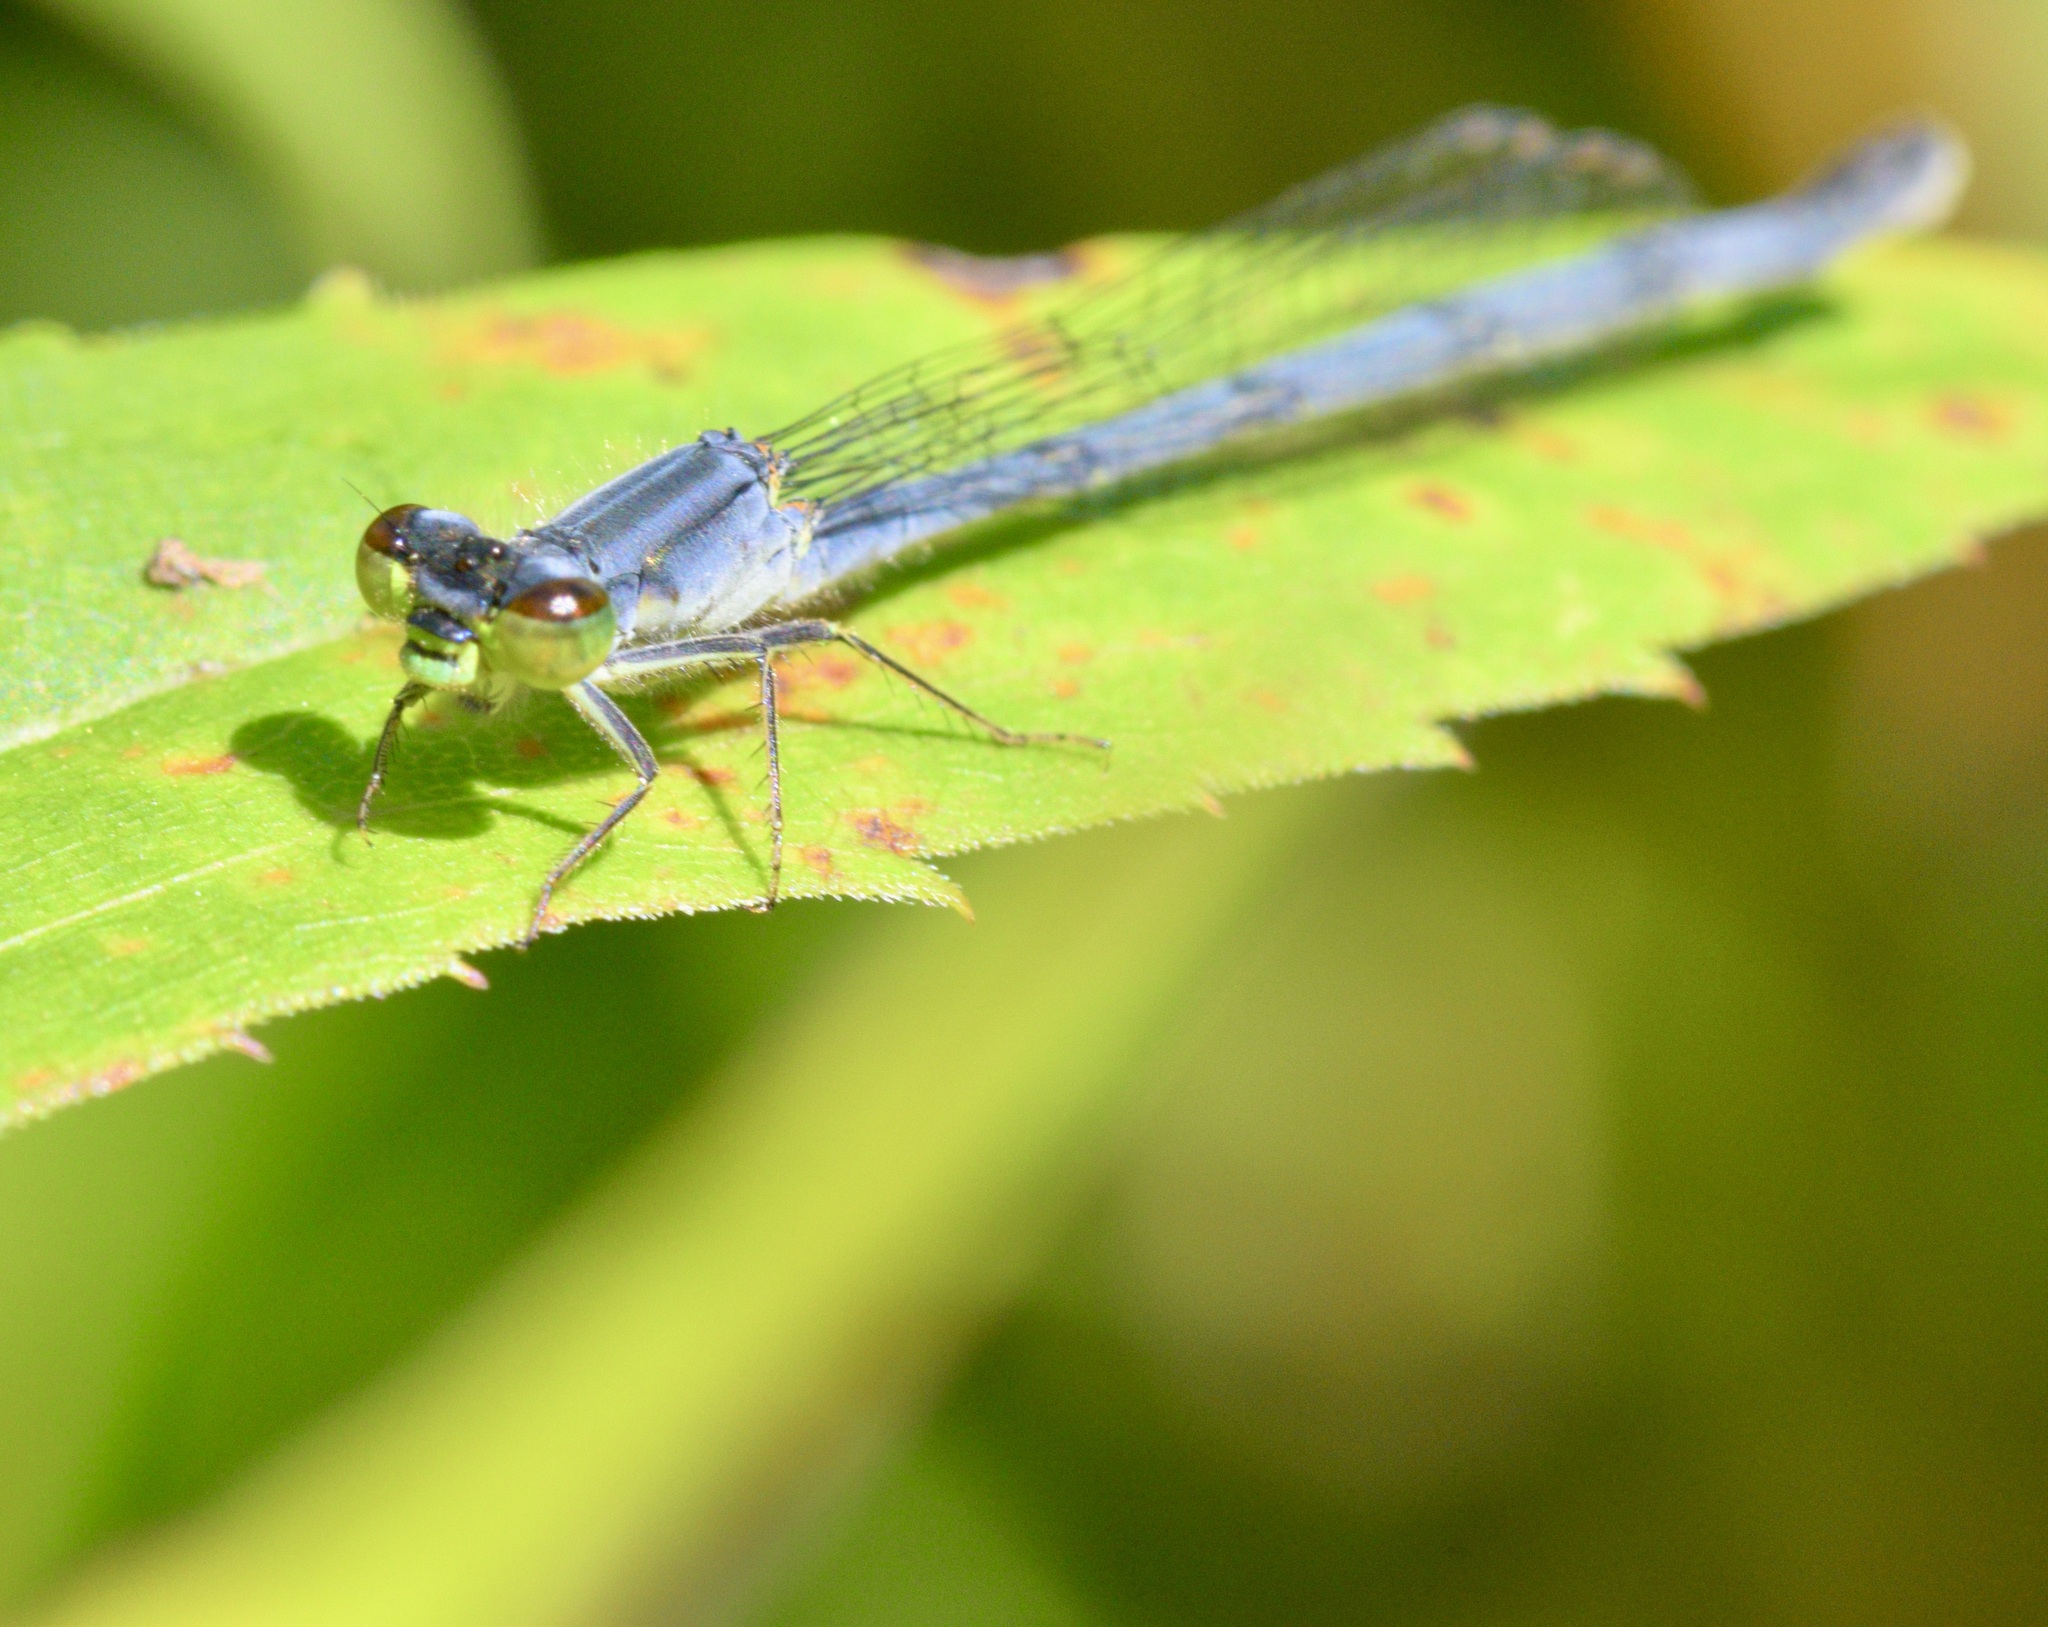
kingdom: Animalia
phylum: Arthropoda
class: Insecta
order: Odonata
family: Coenagrionidae
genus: Ischnura
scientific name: Ischnura verticalis
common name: Eastern forktail
